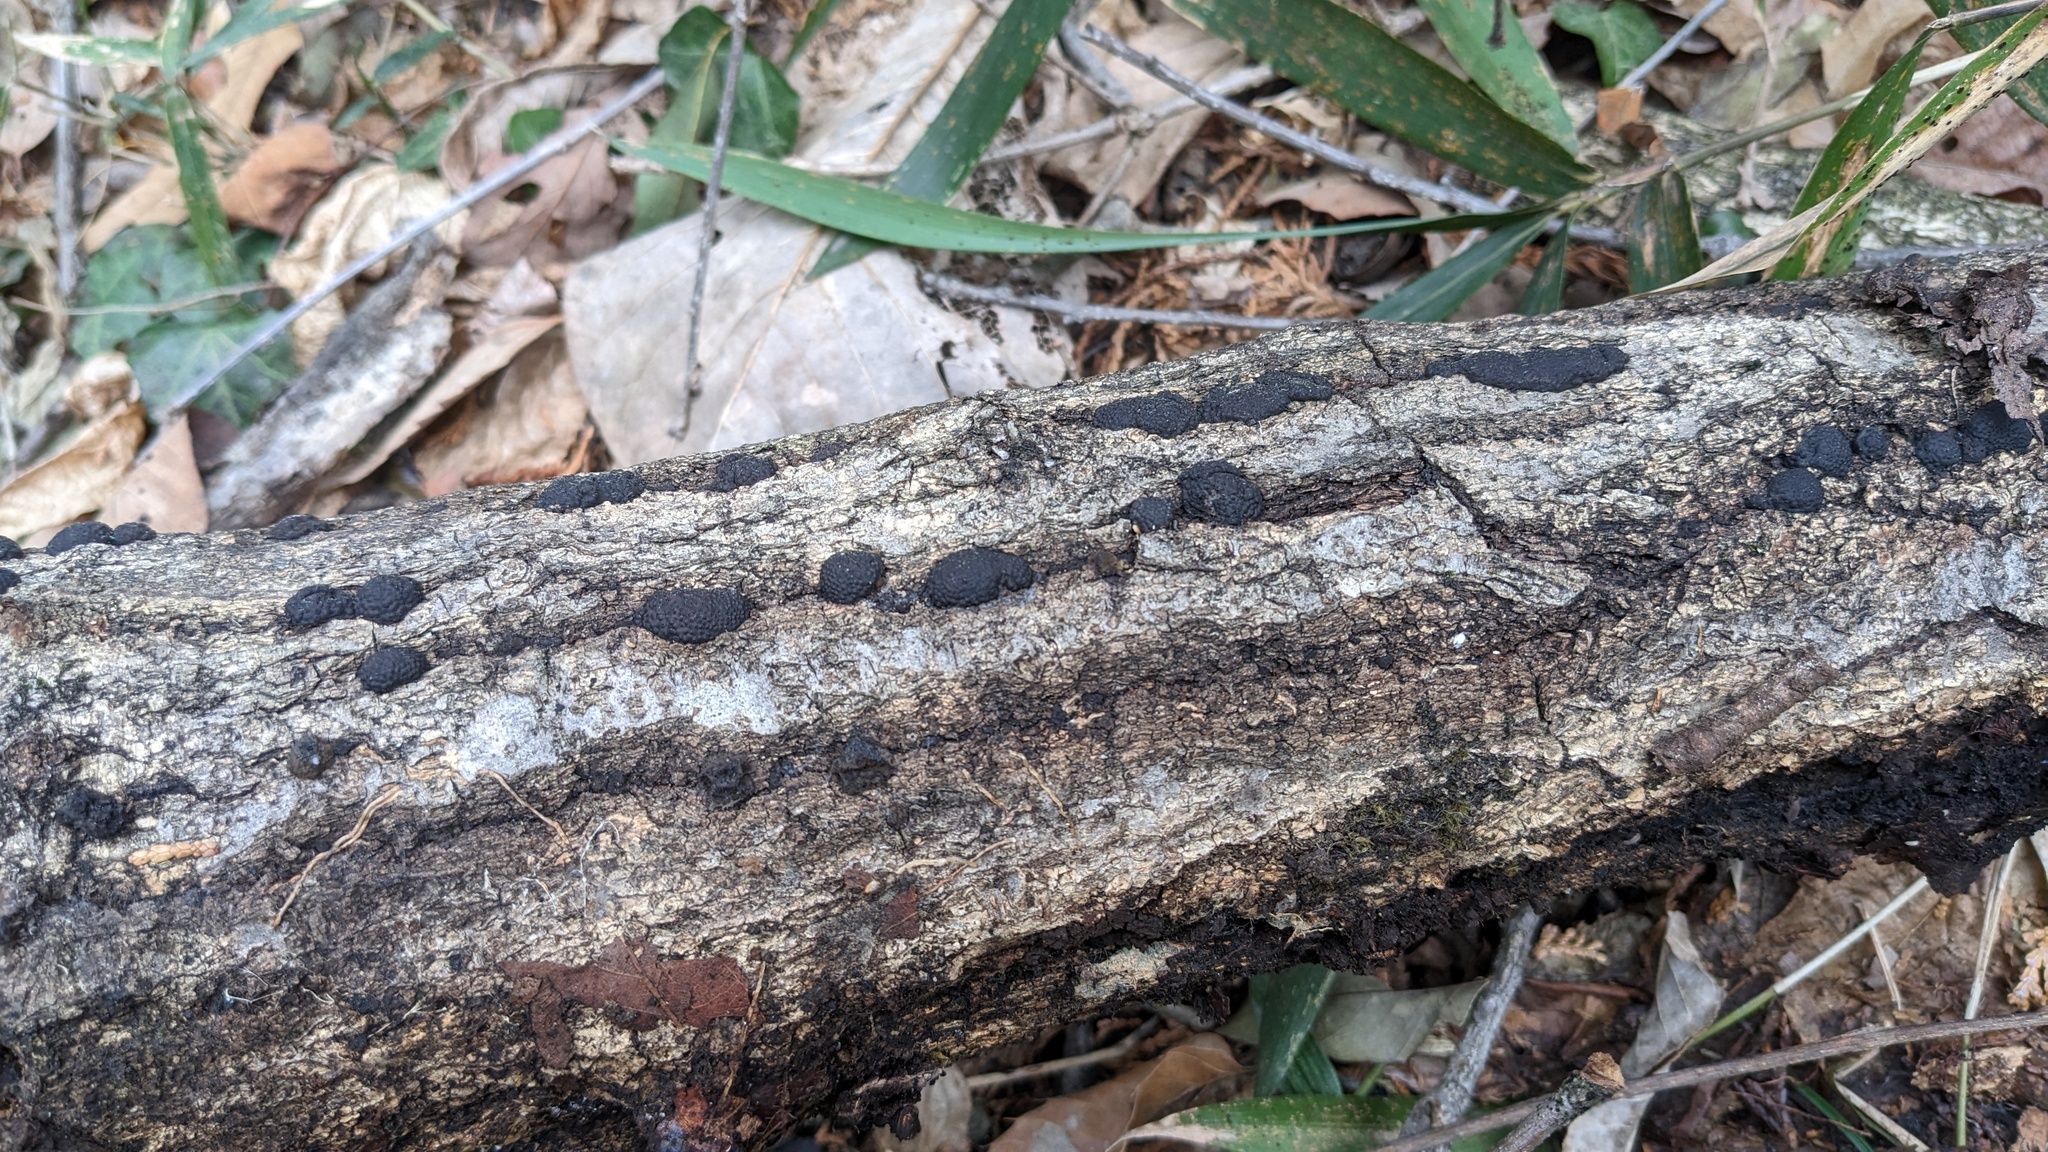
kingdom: Fungi
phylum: Ascomycota
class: Sordariomycetes
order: Xylariales
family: Hypoxylaceae
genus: Annulohypoxylon
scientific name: Annulohypoxylon truncatum
